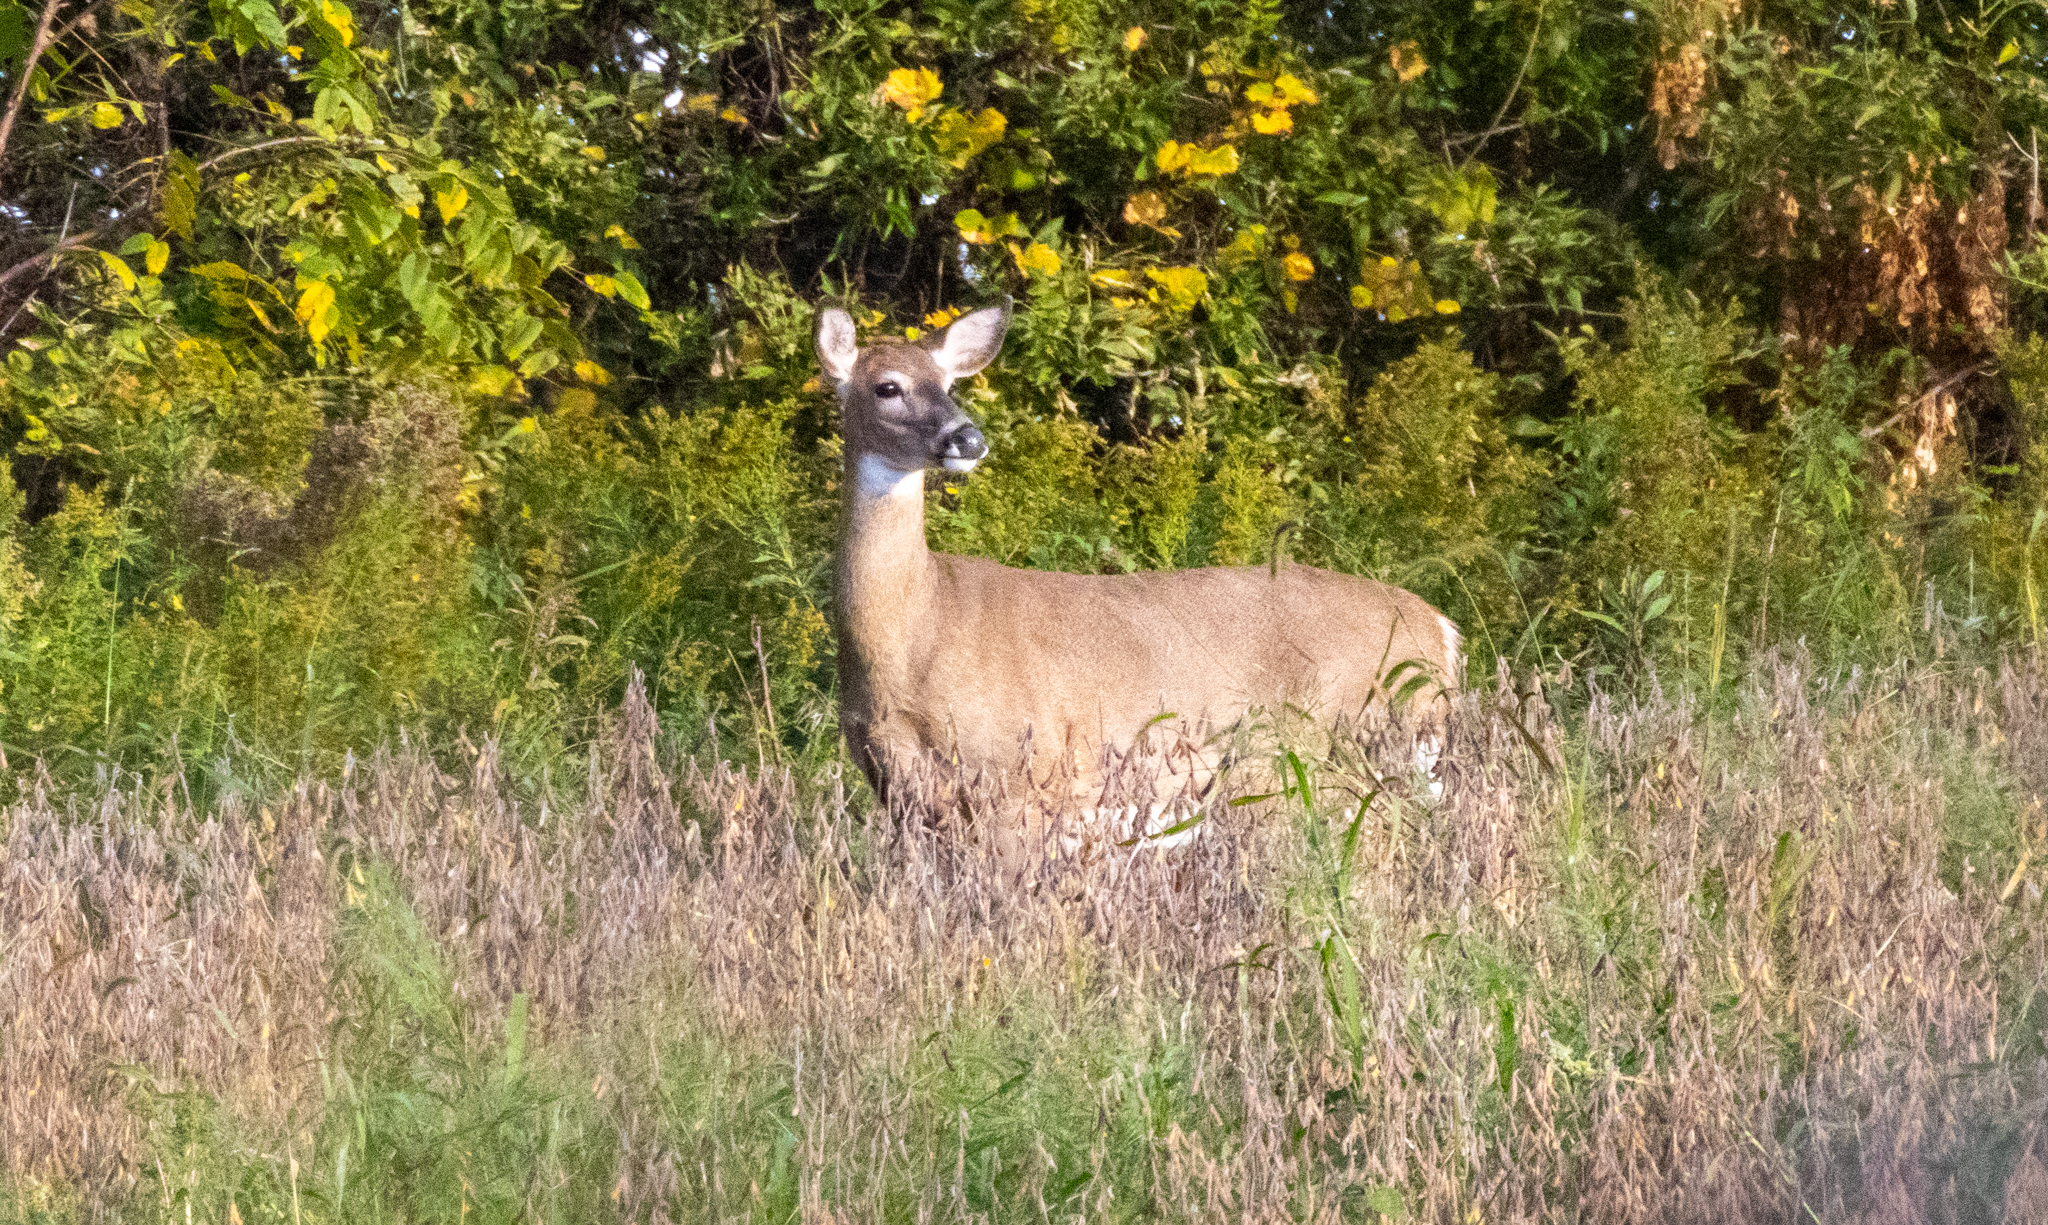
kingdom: Animalia
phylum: Chordata
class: Mammalia
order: Artiodactyla
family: Cervidae
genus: Odocoileus
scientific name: Odocoileus virginianus
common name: White-tailed deer
